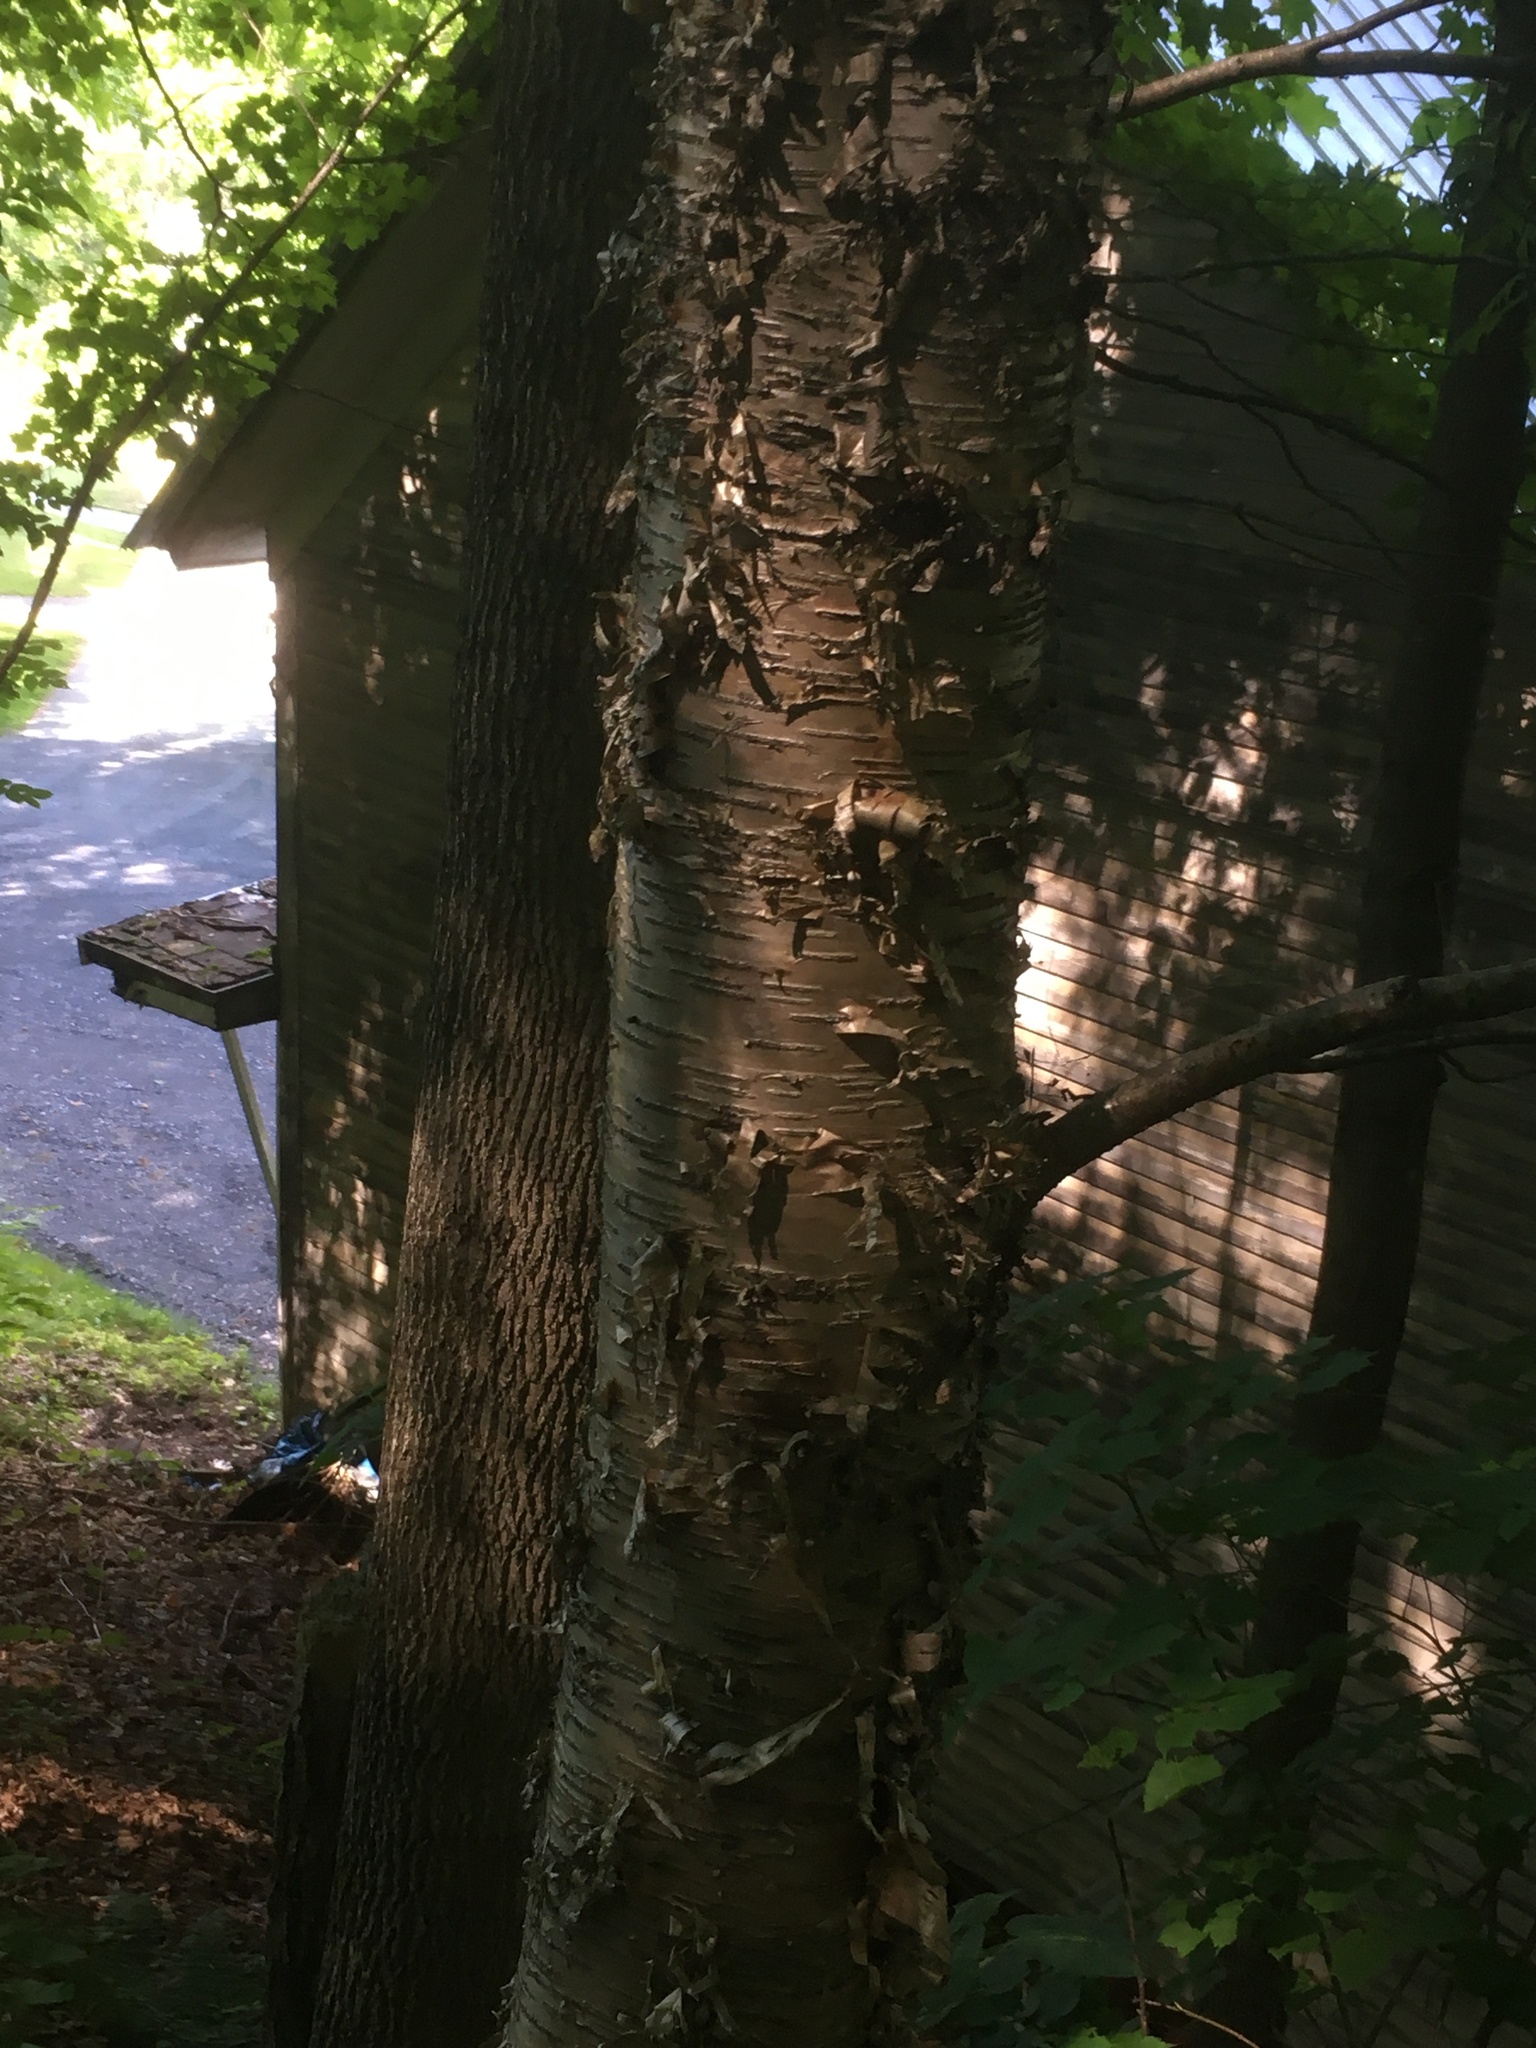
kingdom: Plantae
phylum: Tracheophyta
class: Magnoliopsida
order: Fagales
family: Betulaceae
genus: Betula
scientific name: Betula alleghaniensis
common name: Yellow birch
